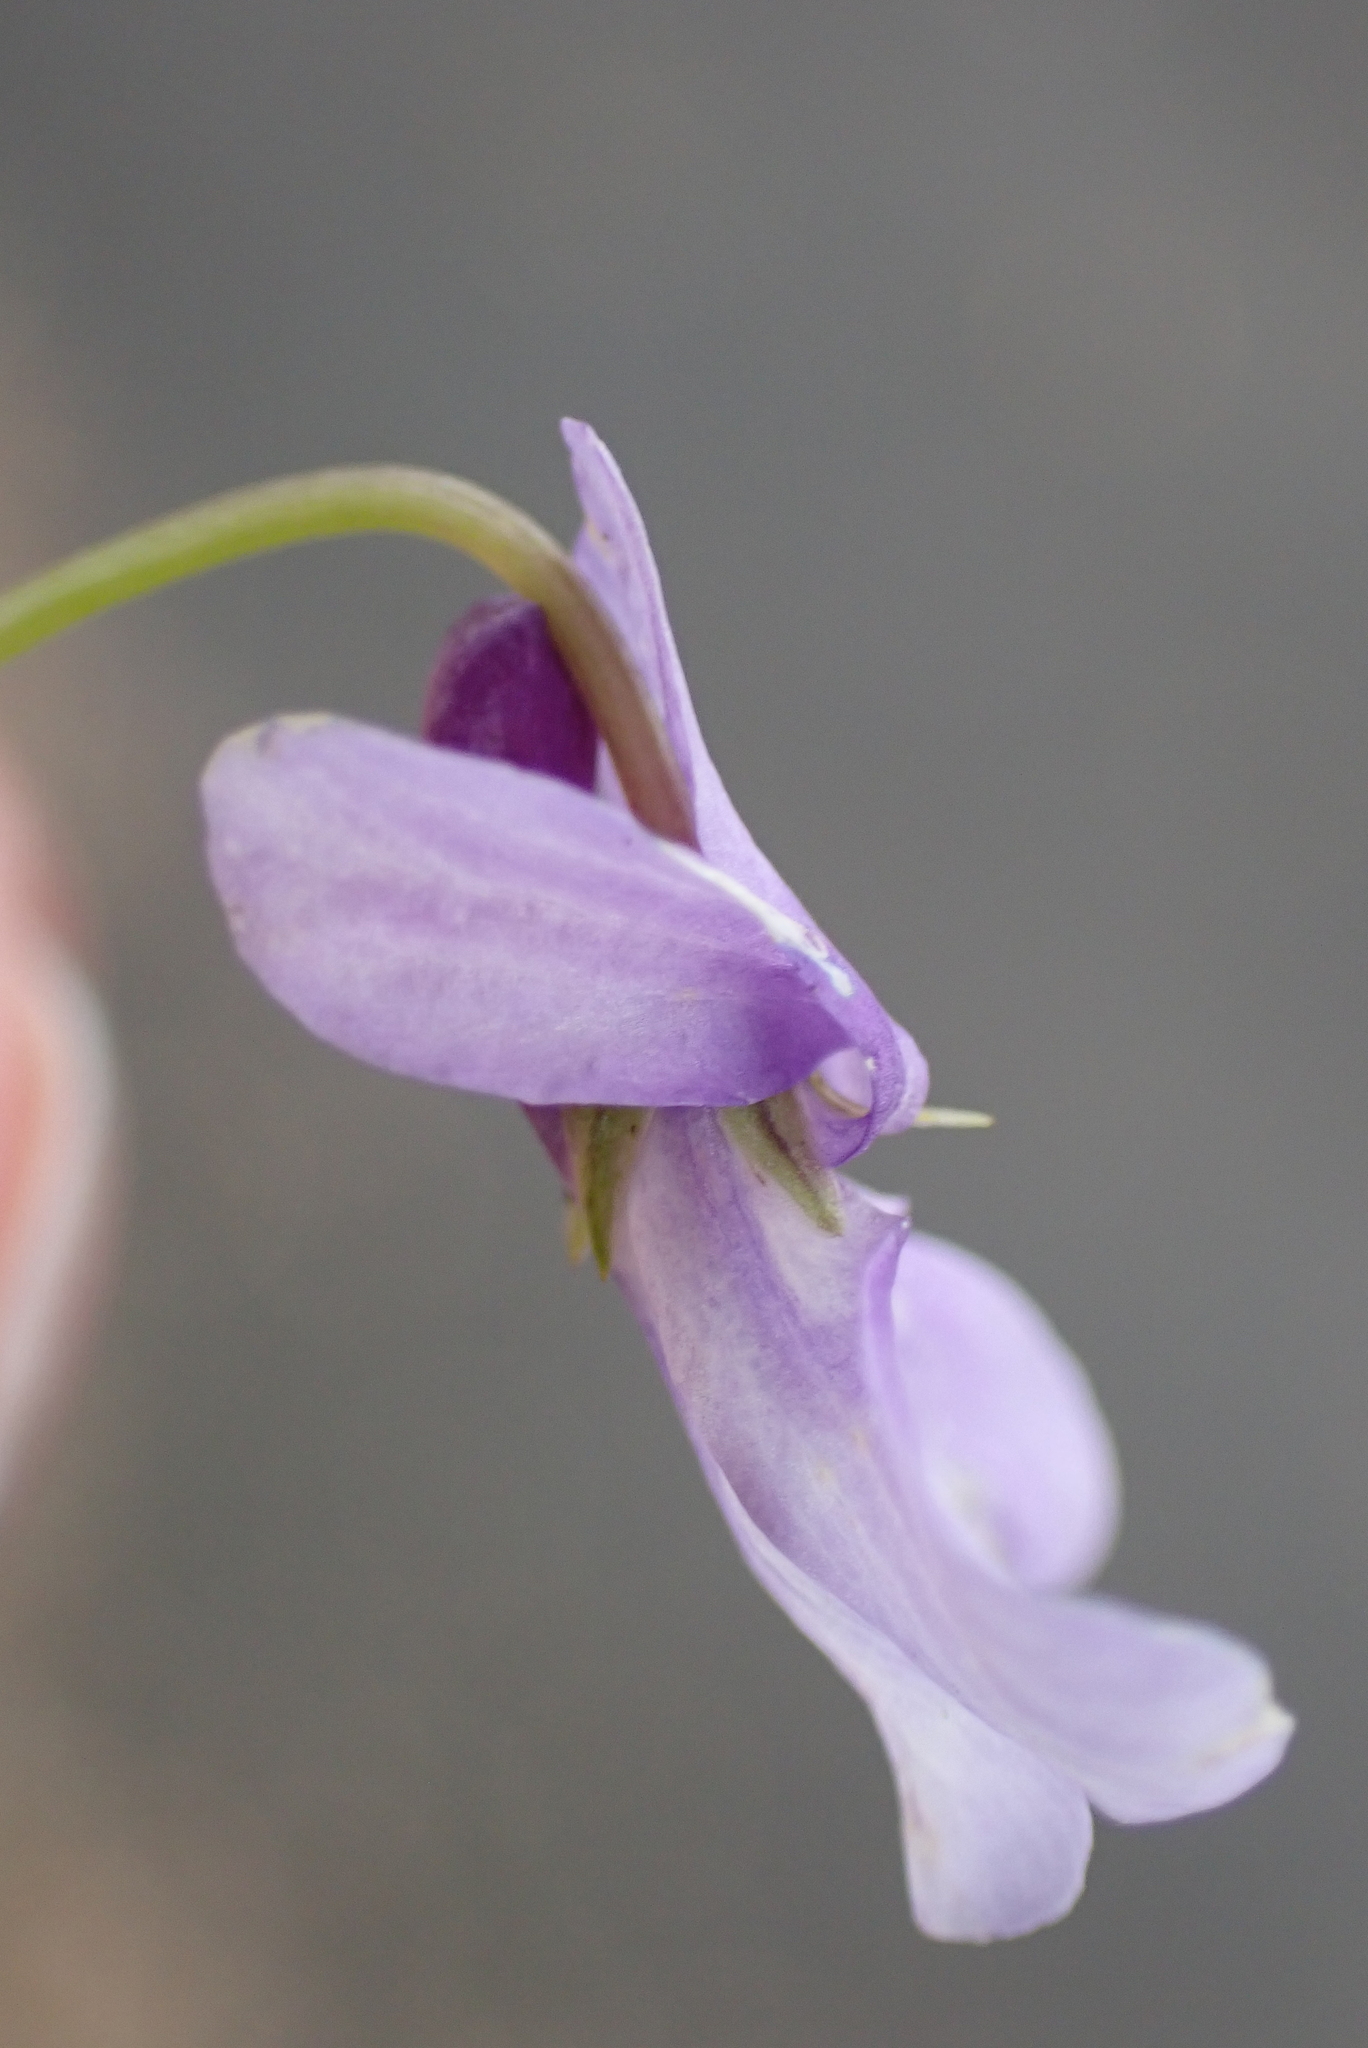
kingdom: Plantae
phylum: Tracheophyta
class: Magnoliopsida
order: Malpighiales
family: Violaceae
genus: Viola
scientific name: Viola reichenbachiana
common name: Early dog-violet
